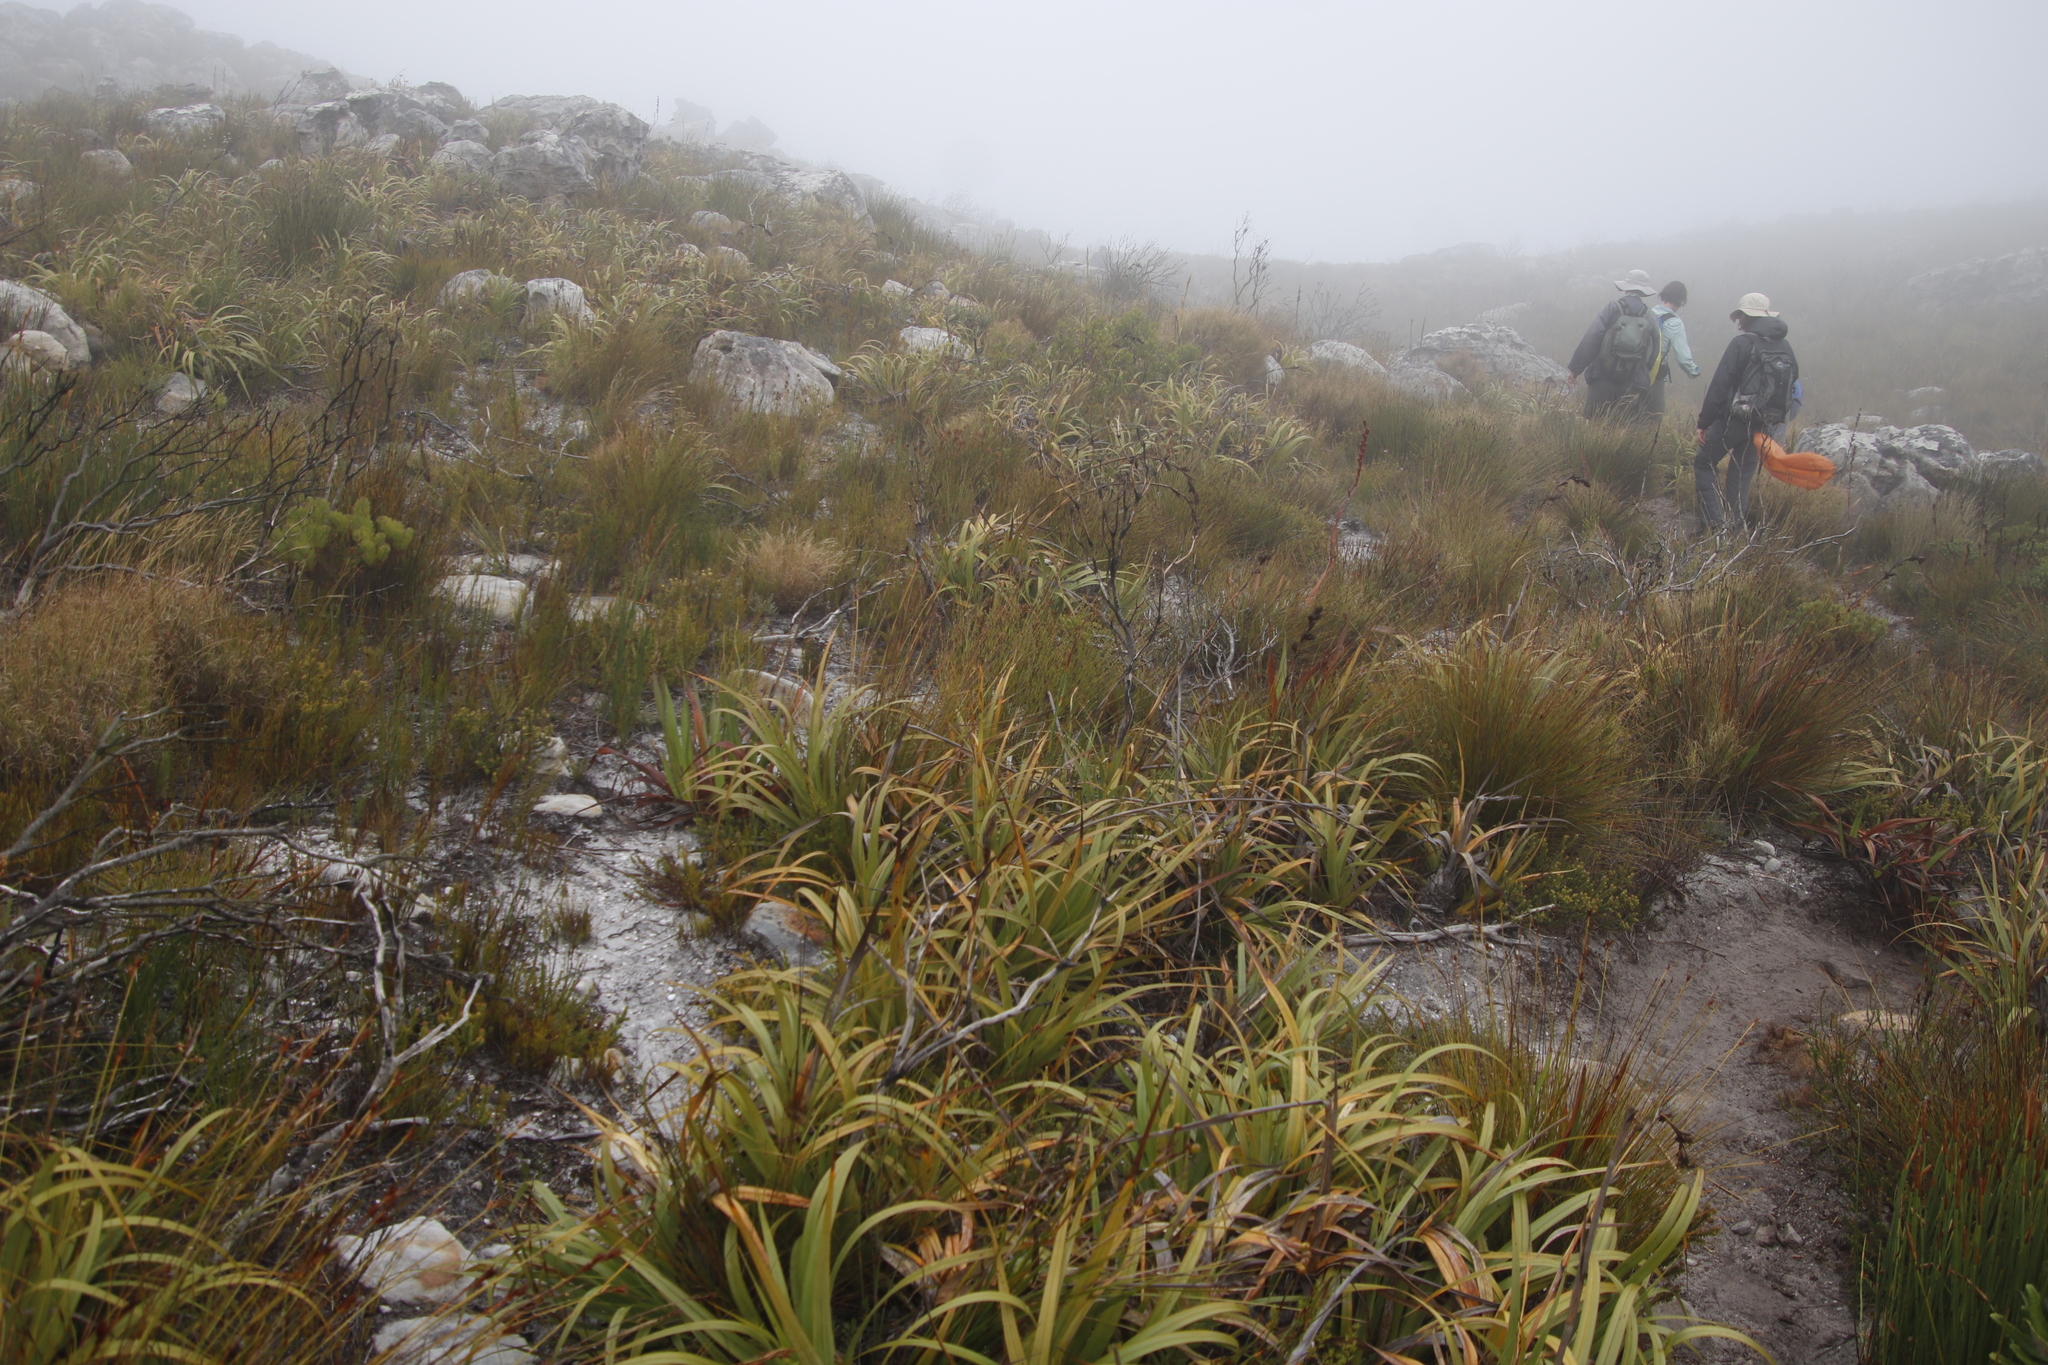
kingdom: Plantae
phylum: Tracheophyta
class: Liliopsida
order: Poales
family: Cyperaceae
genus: Tetraria
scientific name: Tetraria thermalis
